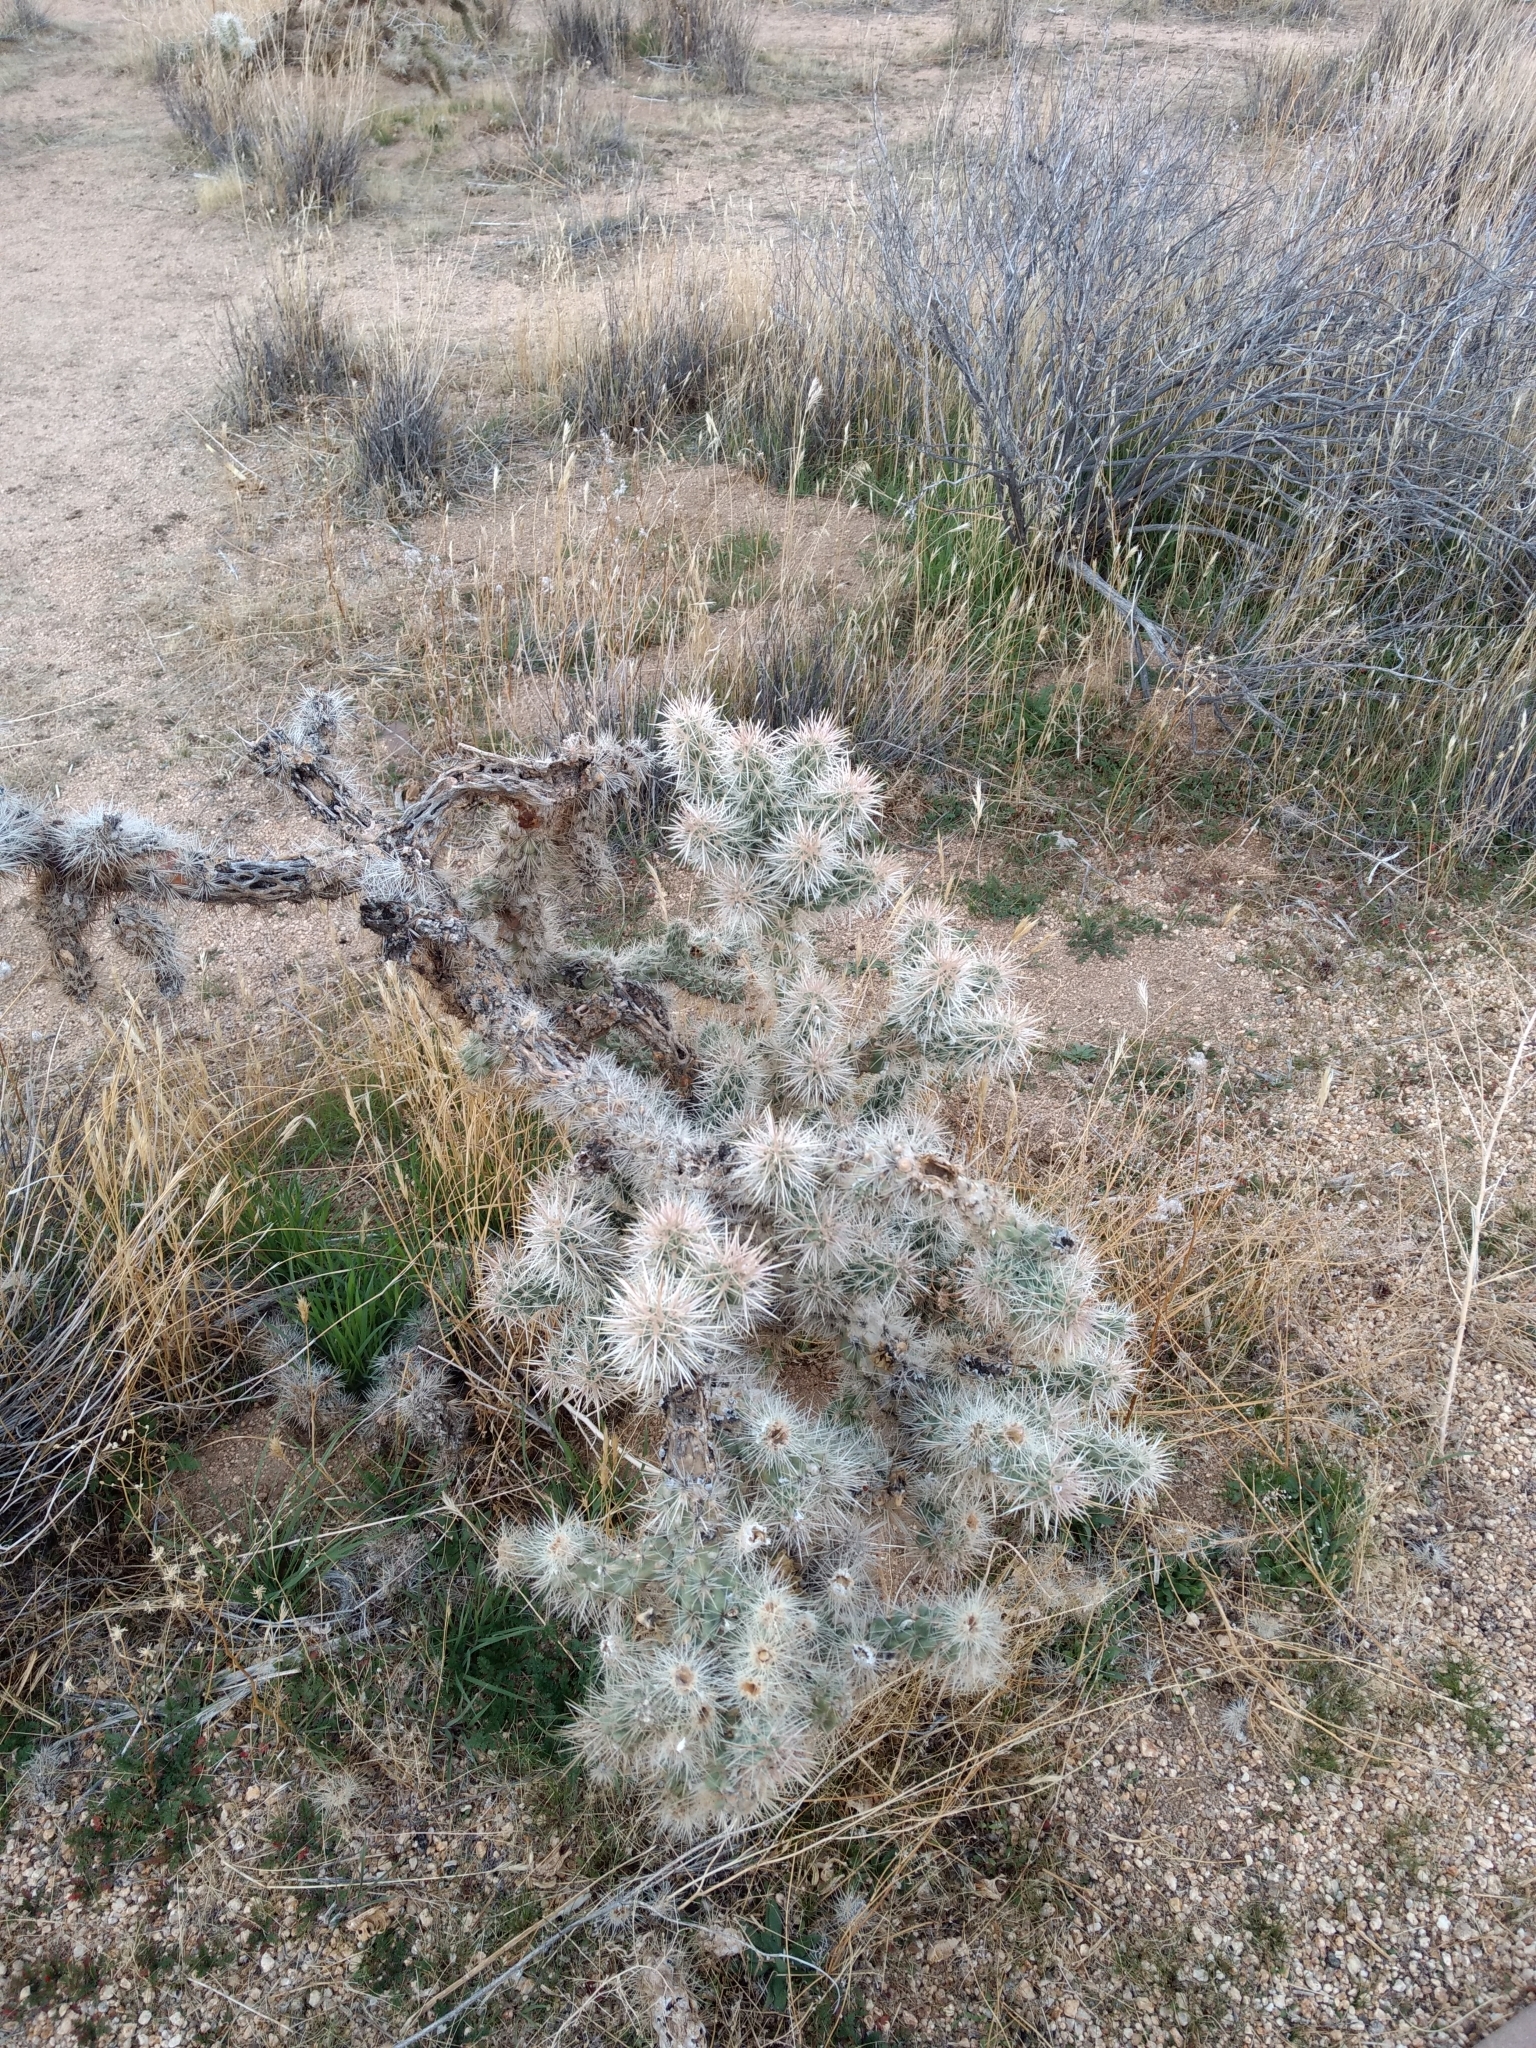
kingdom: Plantae
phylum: Tracheophyta
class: Magnoliopsida
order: Caryophyllales
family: Cactaceae
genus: Cylindropuntia
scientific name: Cylindropuntia echinocarpa
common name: Ground cholla
